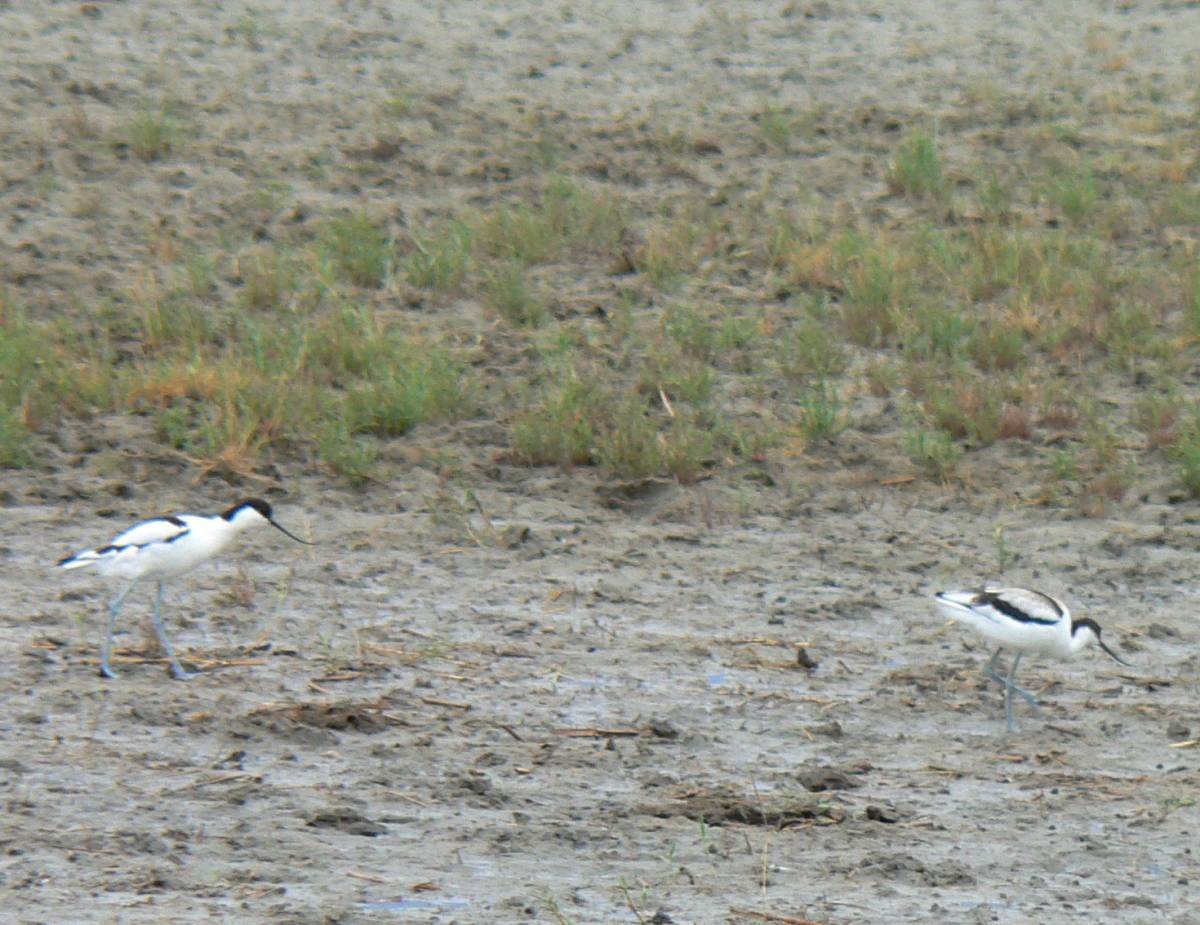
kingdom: Animalia
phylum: Chordata
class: Aves
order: Charadriiformes
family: Recurvirostridae
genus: Recurvirostra
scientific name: Recurvirostra avosetta
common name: Pied avocet
